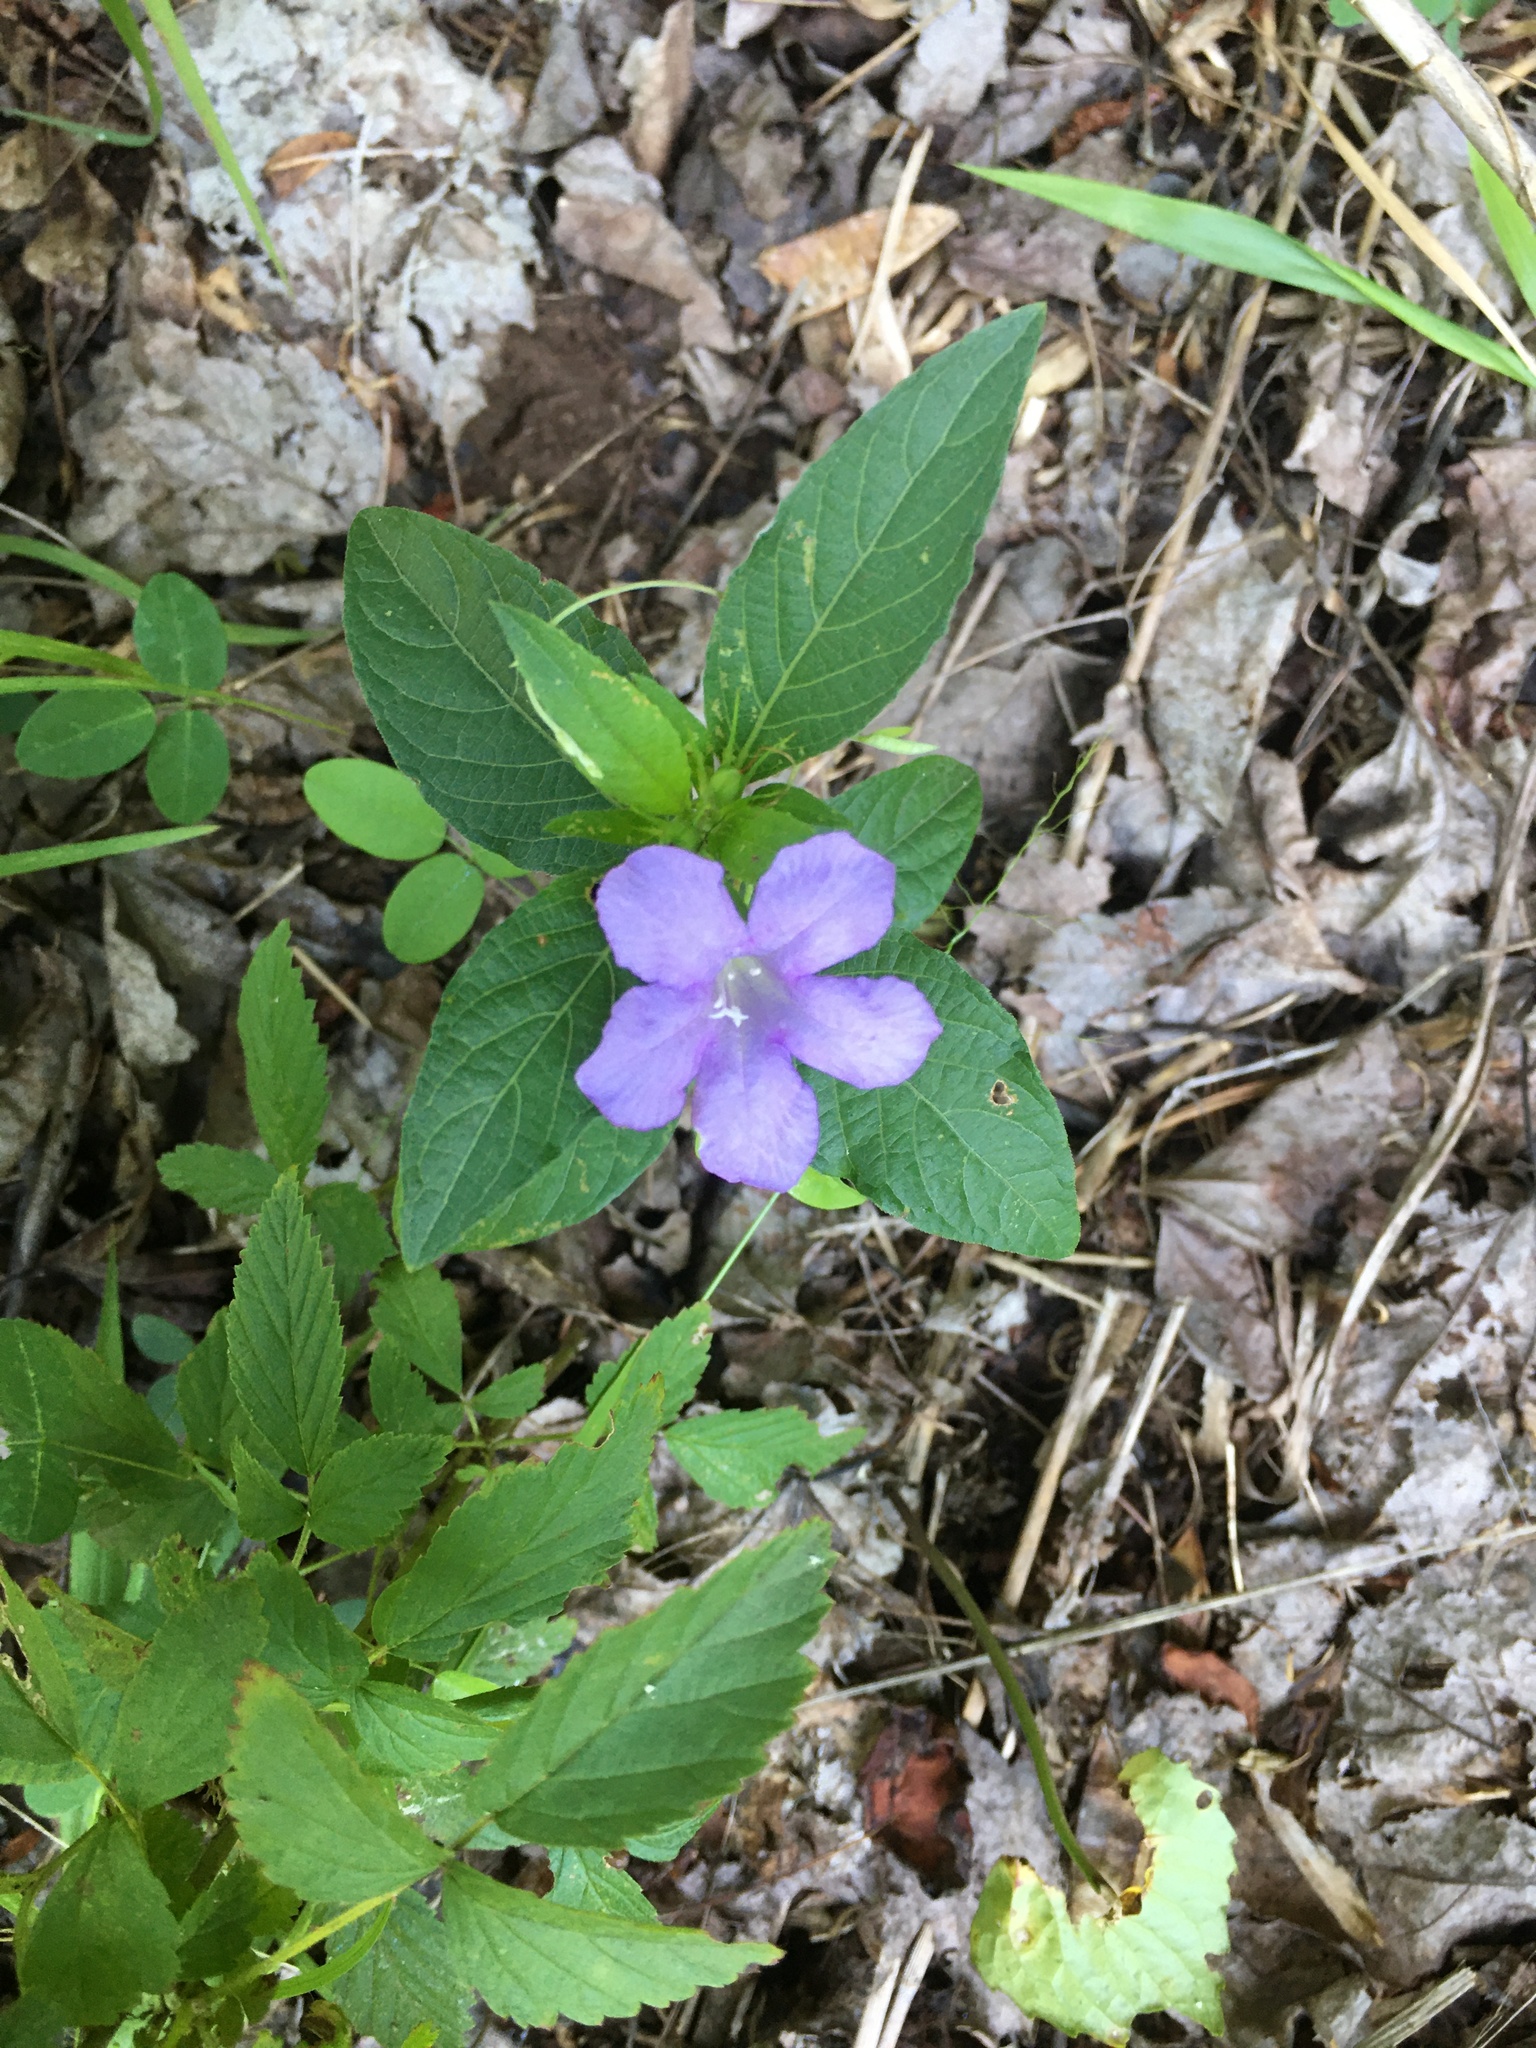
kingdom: Plantae
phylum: Tracheophyta
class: Magnoliopsida
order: Lamiales
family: Acanthaceae
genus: Ruellia
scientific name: Ruellia caroliniensis
